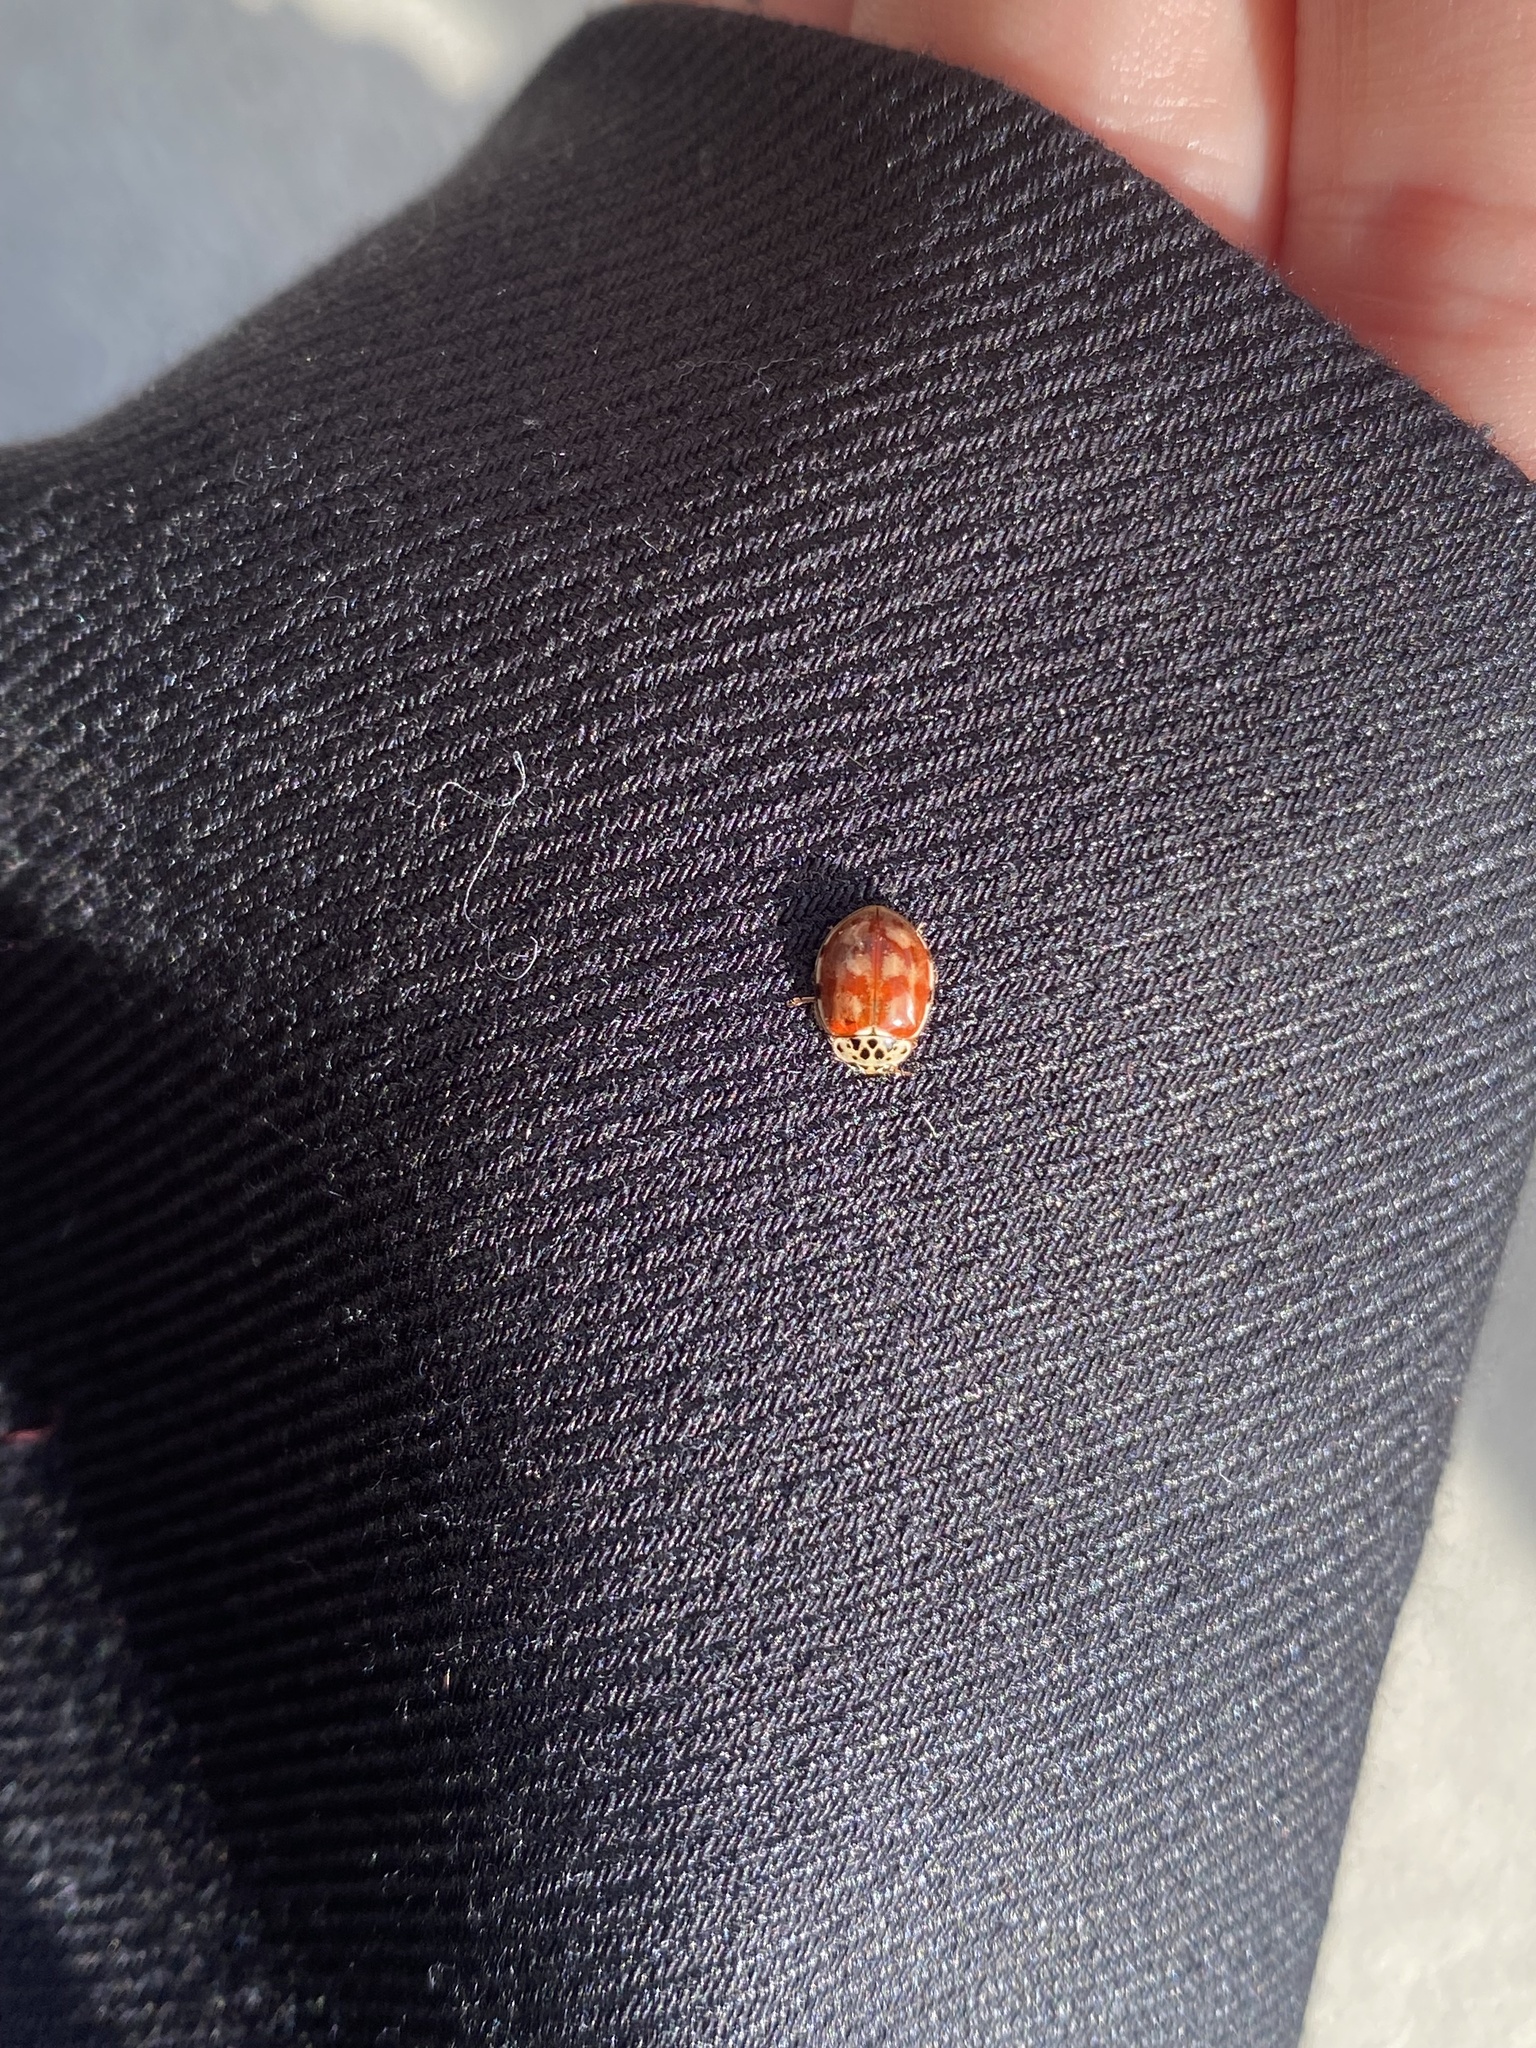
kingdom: Animalia
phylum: Arthropoda
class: Insecta
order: Coleoptera
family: Coccinellidae
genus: Harmonia
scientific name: Harmonia quadripunctata
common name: Cream-streaked ladybird
